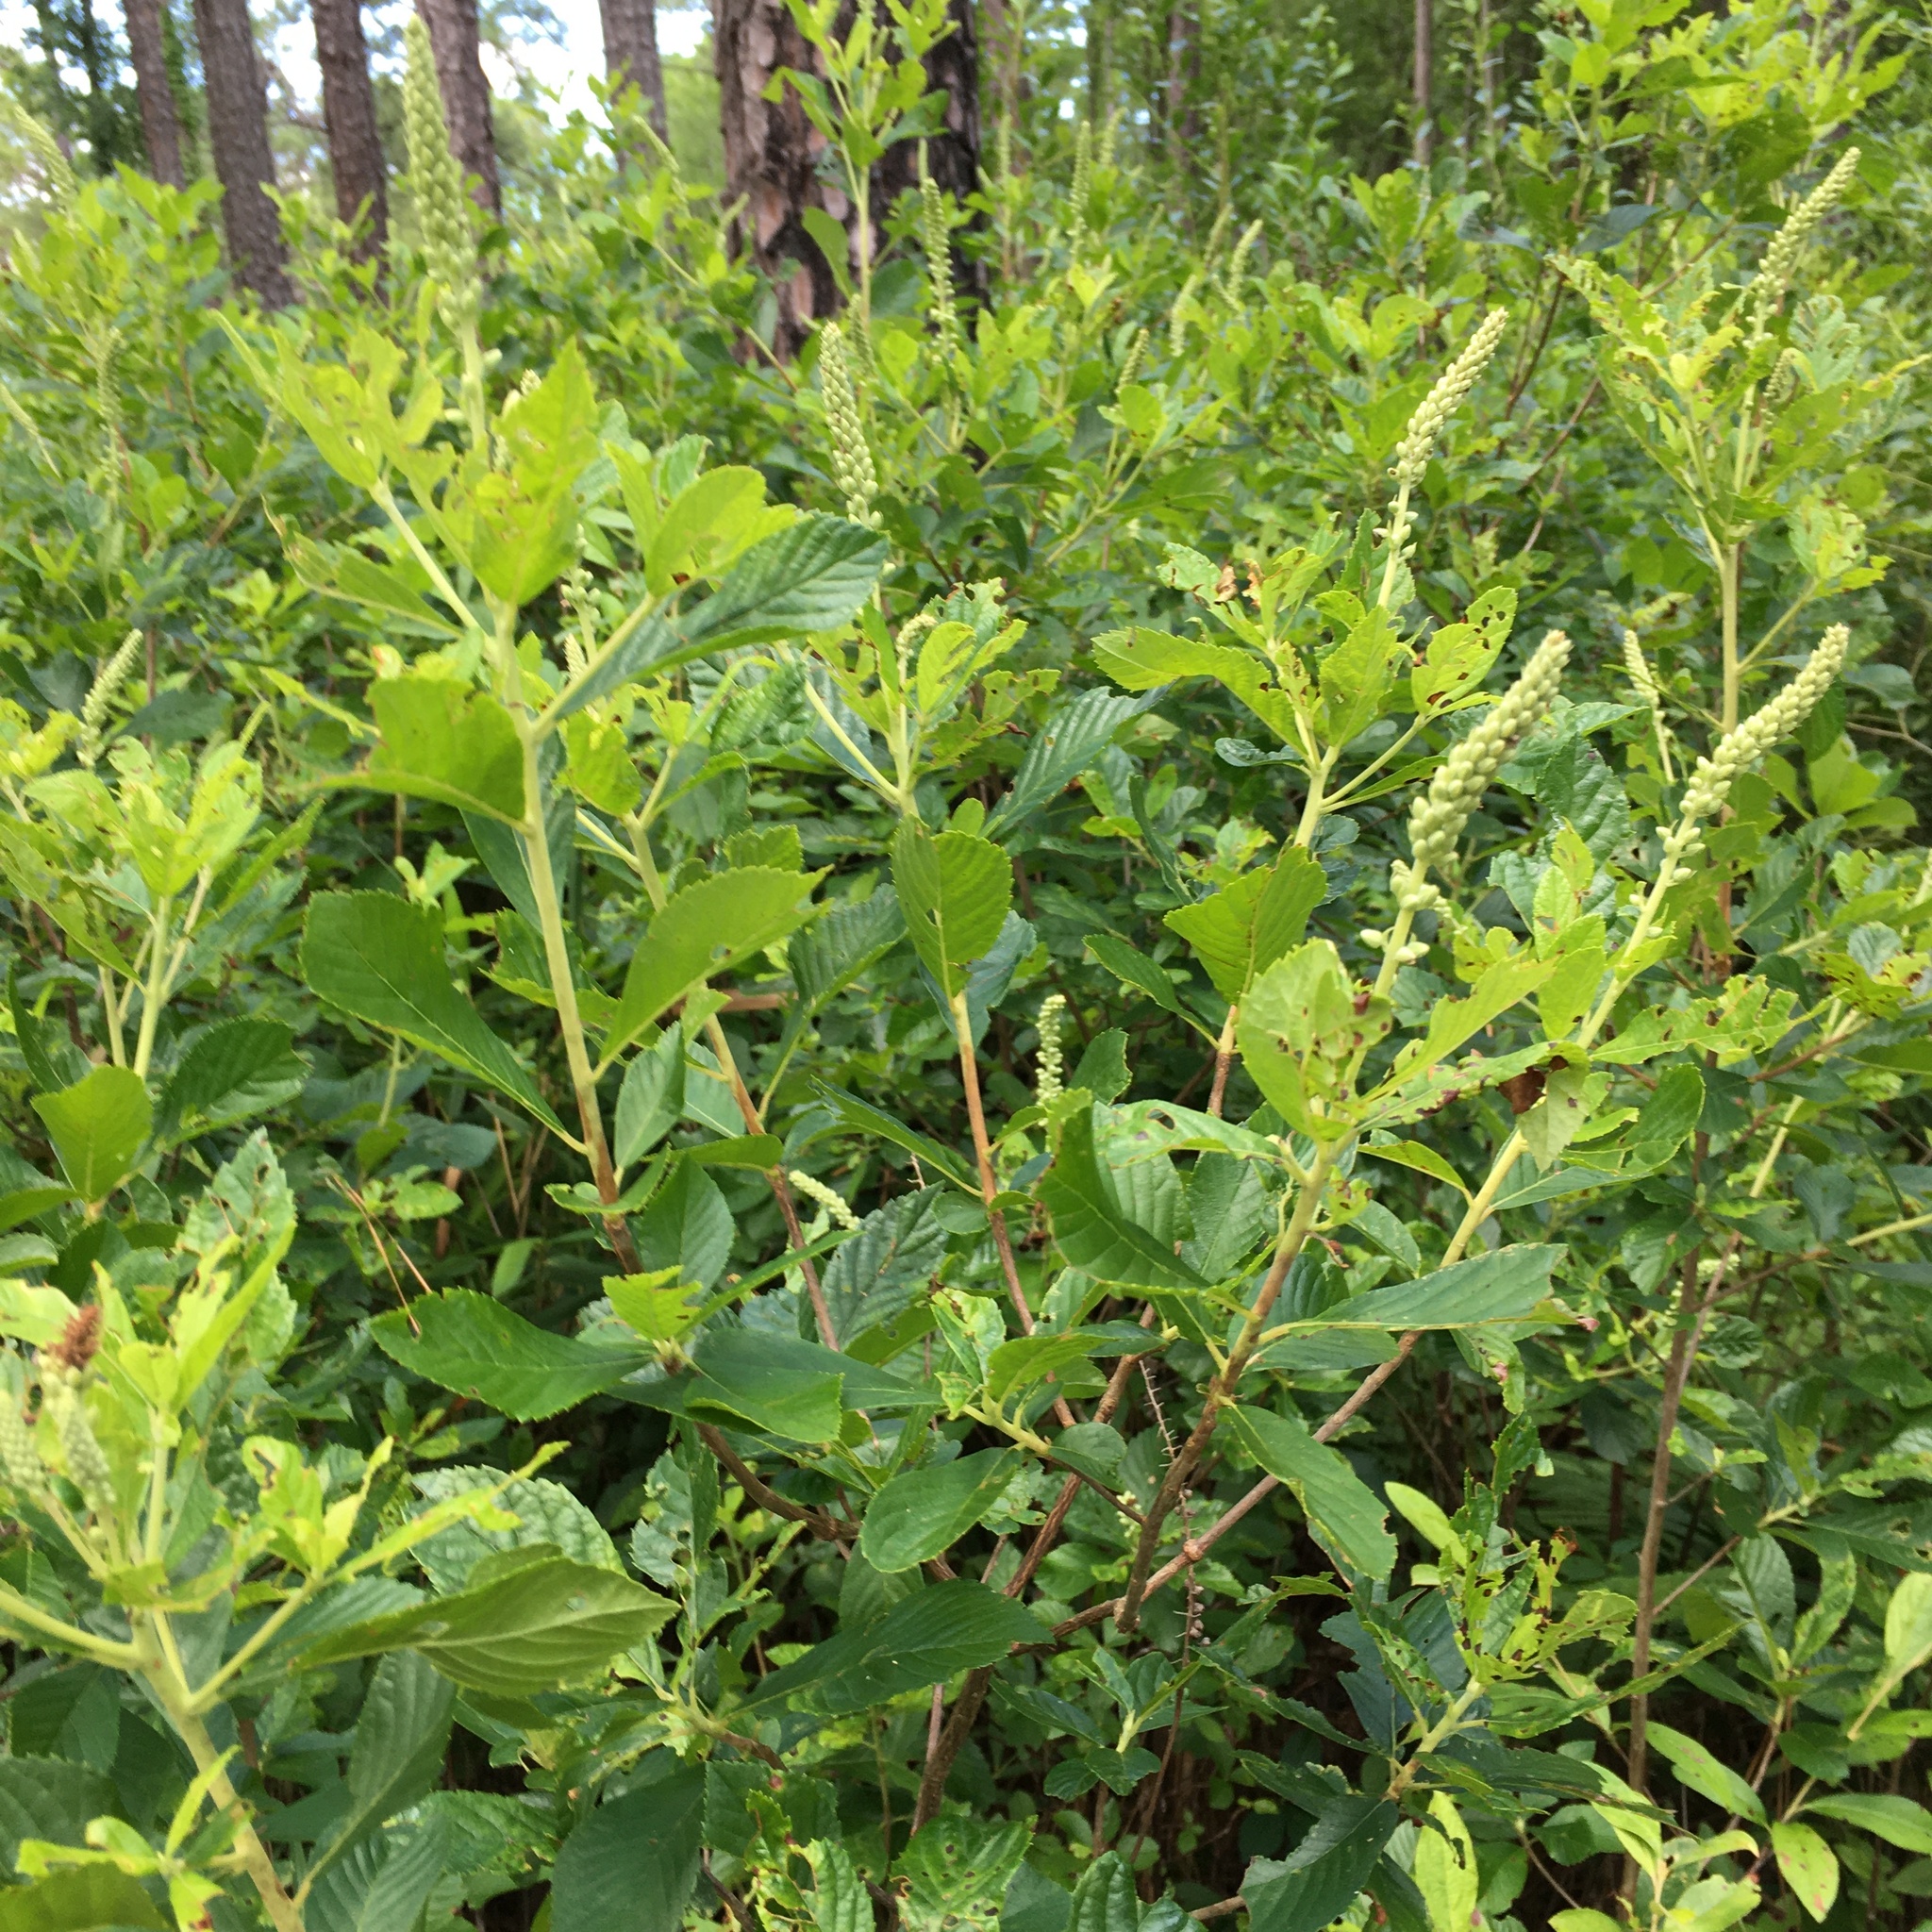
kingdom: Plantae
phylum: Tracheophyta
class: Magnoliopsida
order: Ericales
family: Clethraceae
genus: Clethra
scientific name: Clethra alnifolia
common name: Sweet pepperbush
